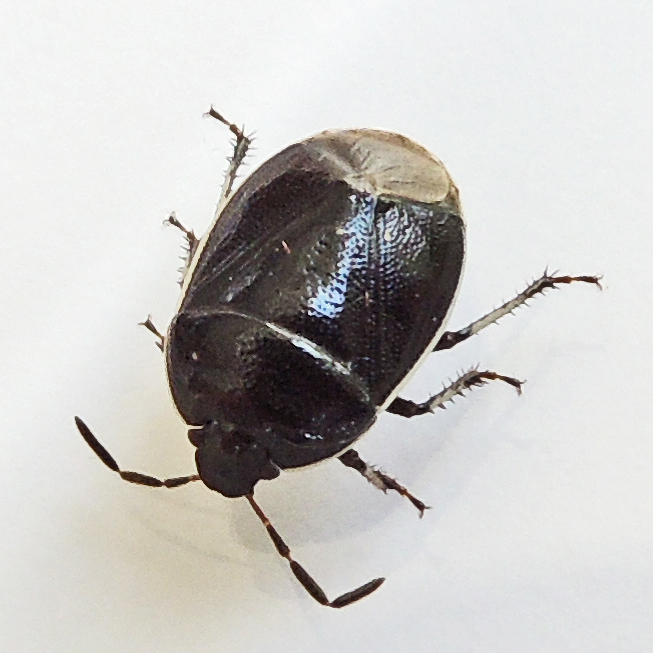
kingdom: Animalia
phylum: Arthropoda
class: Insecta
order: Hemiptera
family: Cydnidae
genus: Sehirus
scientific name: Sehirus cinctus
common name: White-margined burrower bug
